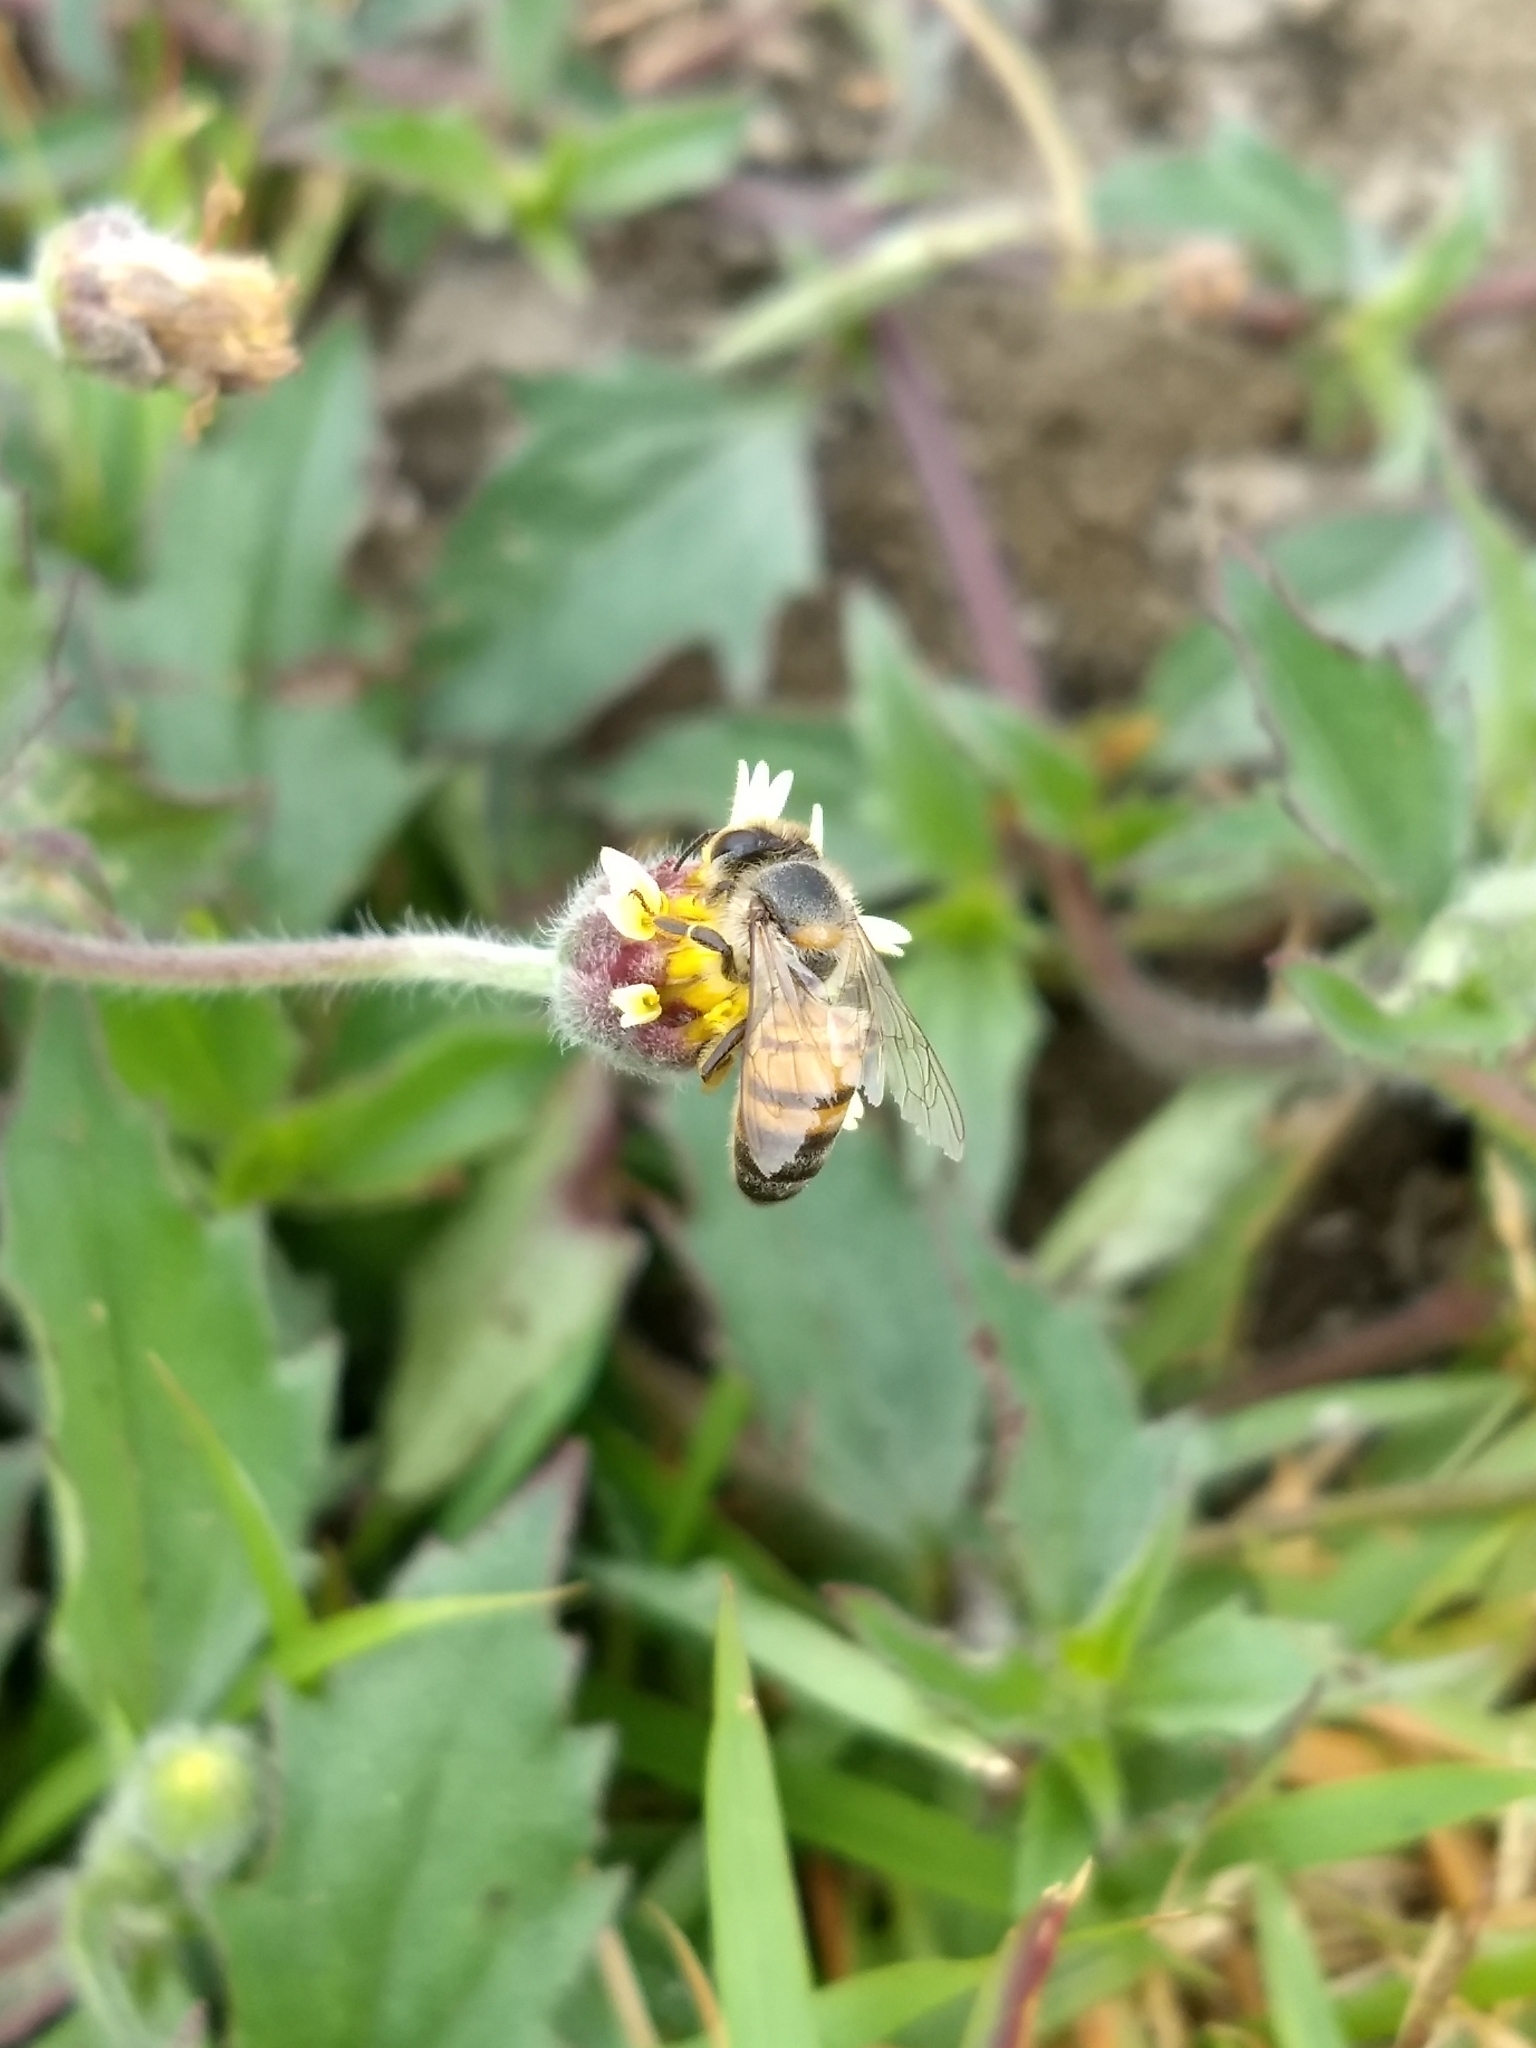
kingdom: Animalia
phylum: Arthropoda
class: Insecta
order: Hymenoptera
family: Apidae
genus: Apis
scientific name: Apis mellifera
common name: Honey bee
